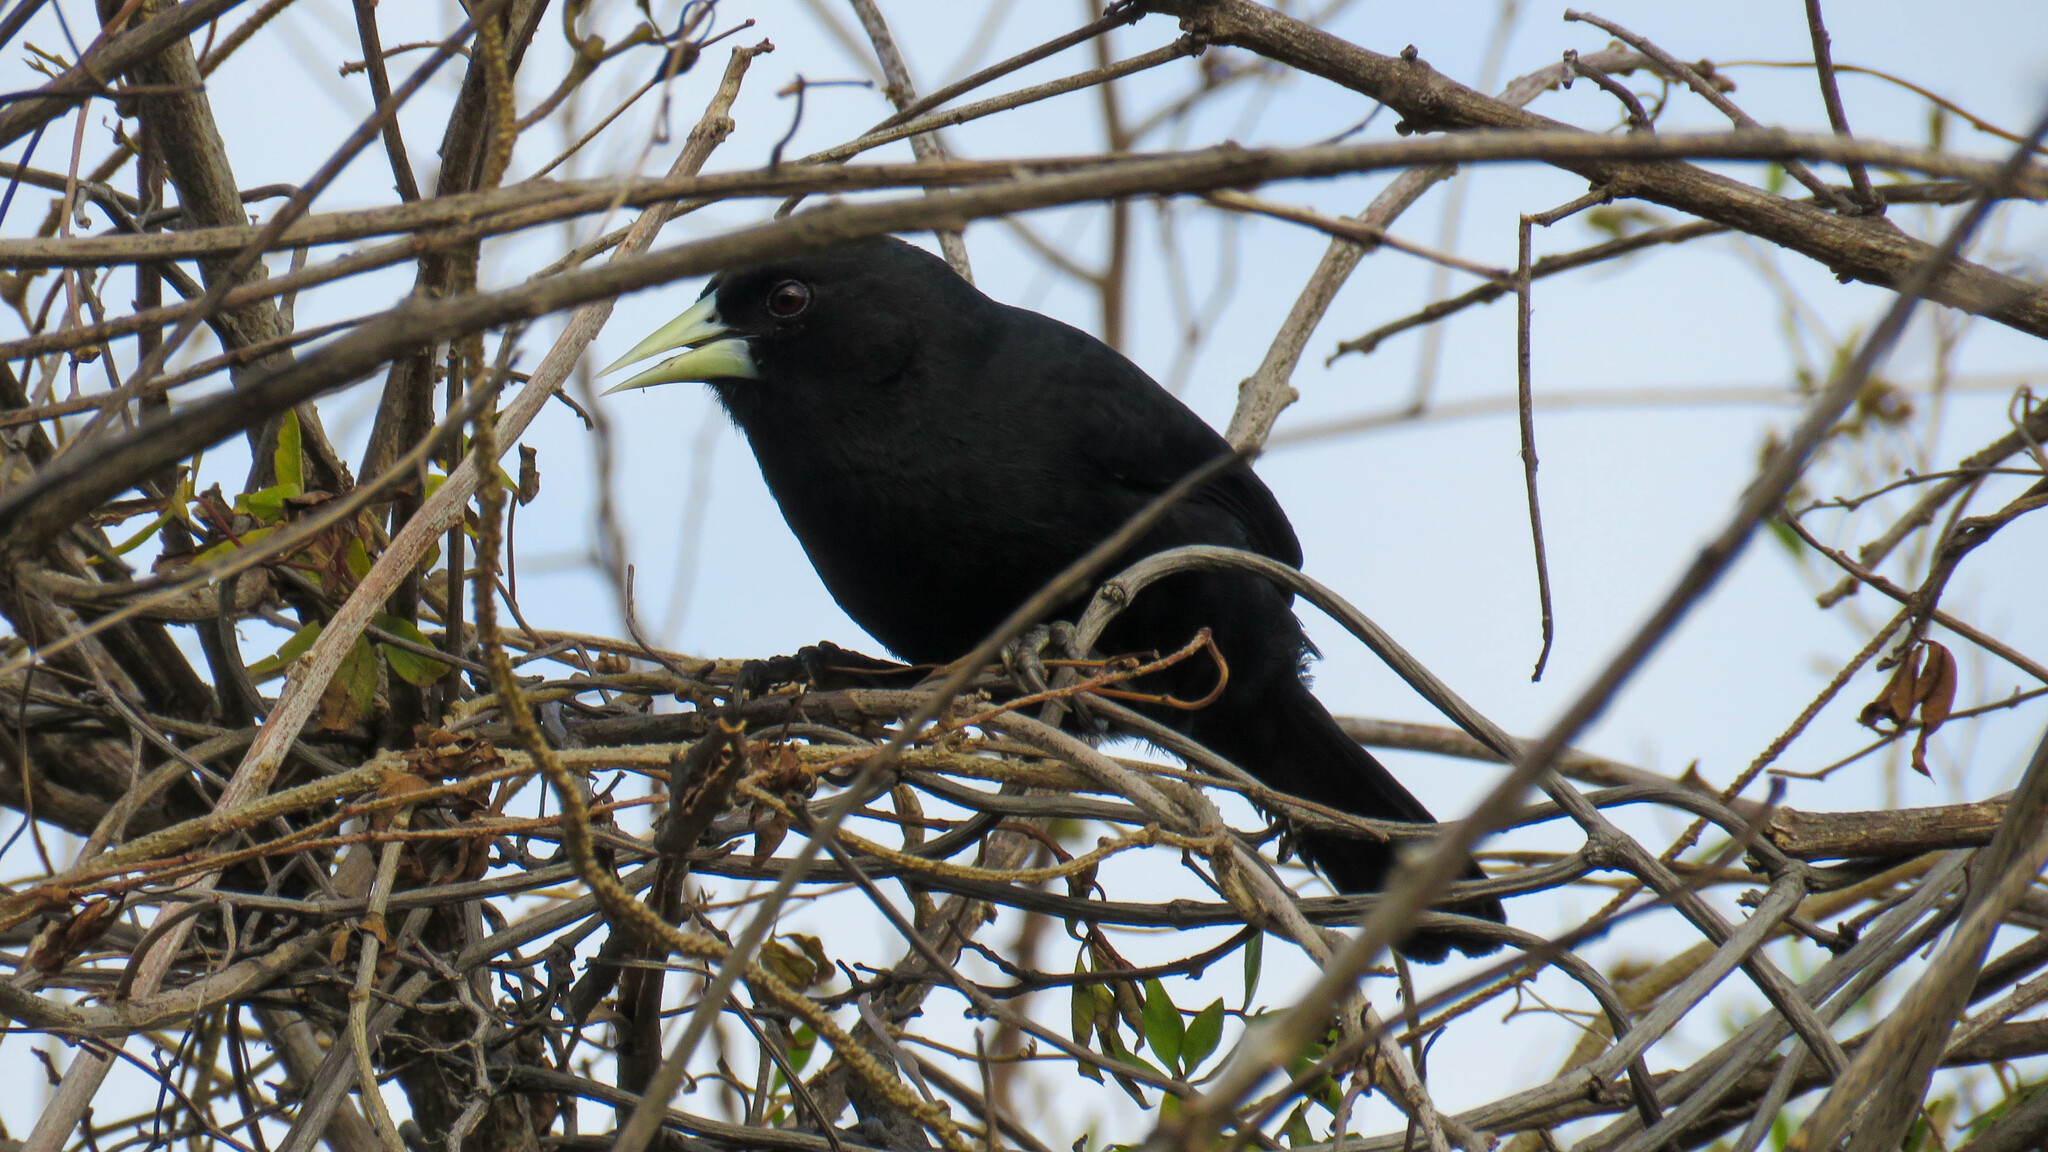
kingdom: Animalia
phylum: Chordata
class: Aves
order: Passeriformes
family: Icteridae
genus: Cacicus
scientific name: Cacicus solitarius
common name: Solitary cacique
